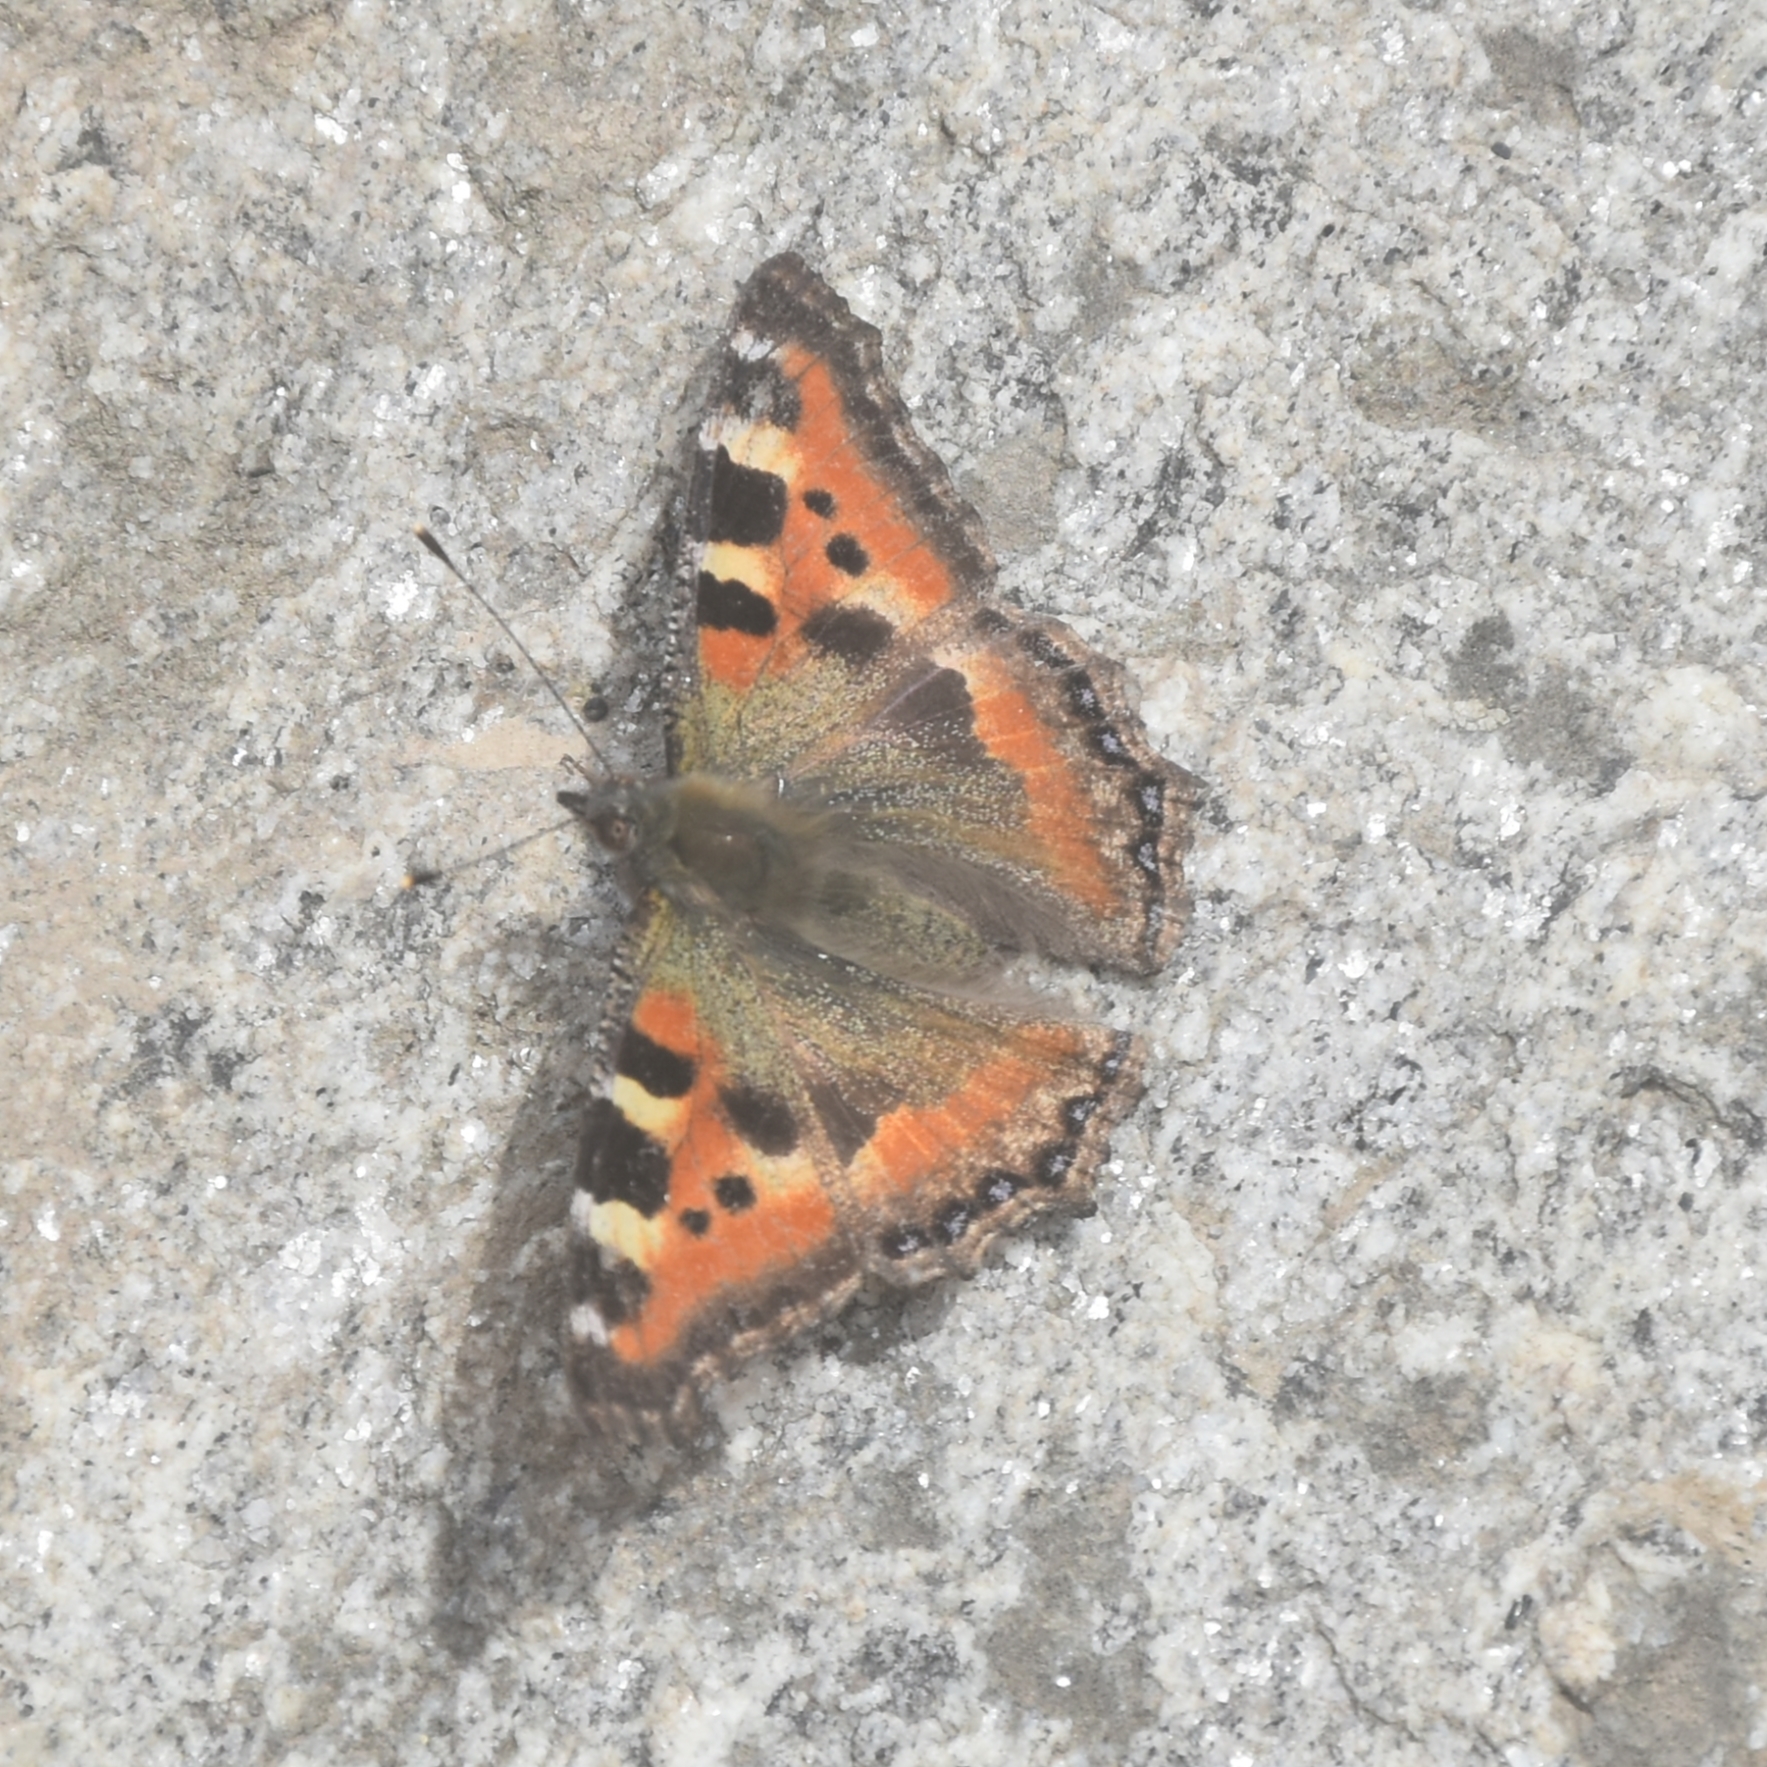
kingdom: Animalia
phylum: Arthropoda
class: Insecta
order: Lepidoptera
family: Nymphalidae
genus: Aglais
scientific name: Aglais caschmirensis
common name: Indian tortoiseshell
